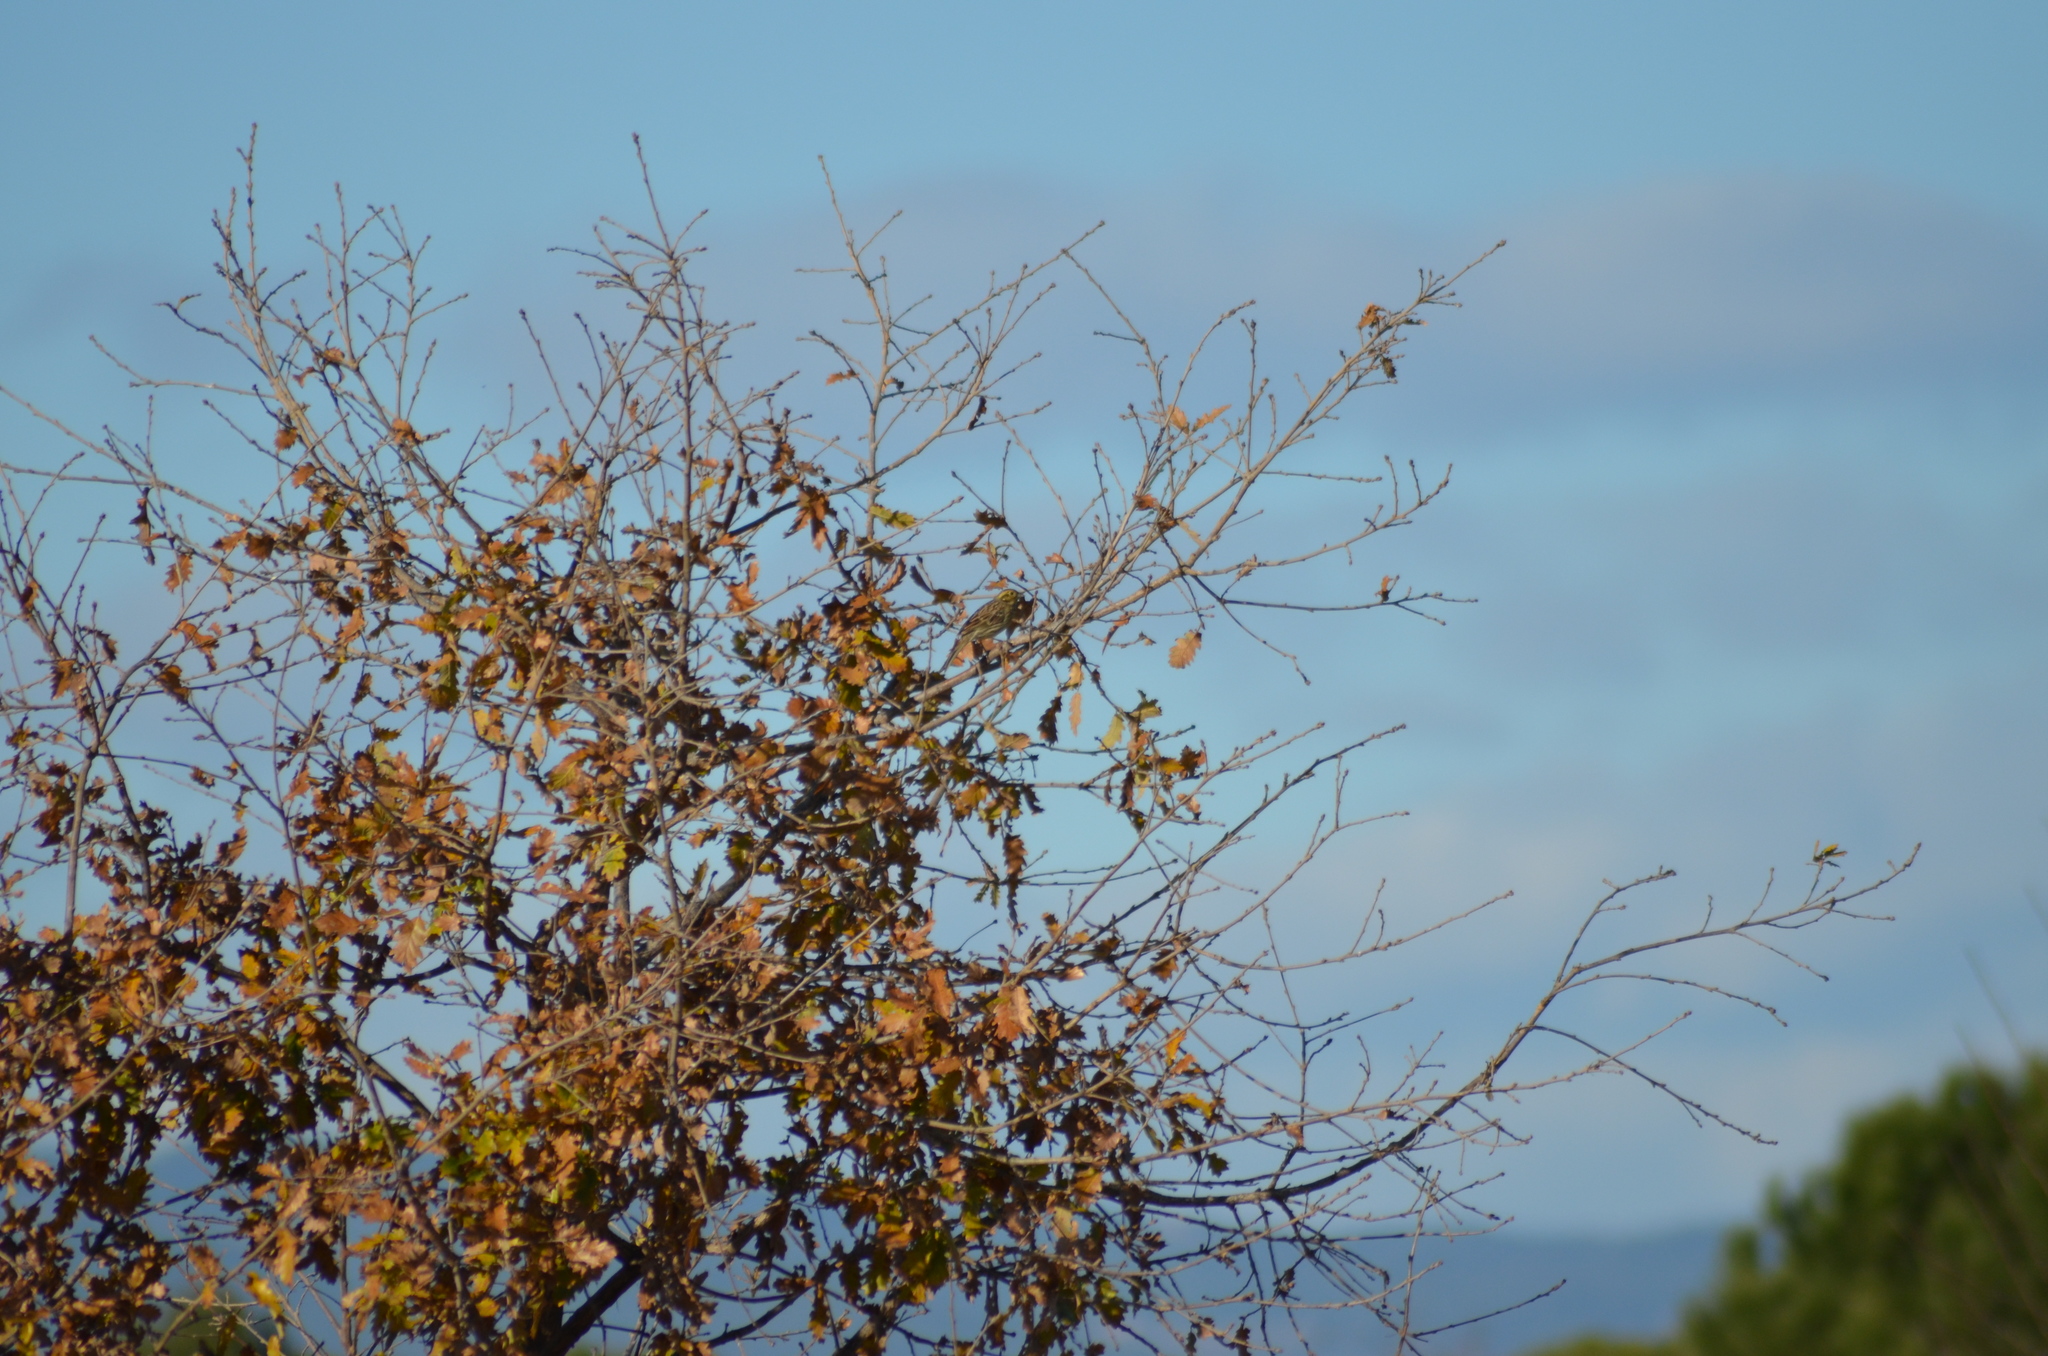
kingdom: Animalia
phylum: Chordata
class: Aves
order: Passeriformes
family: Emberizidae
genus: Emberiza
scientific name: Emberiza cirlus
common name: Cirl bunting
